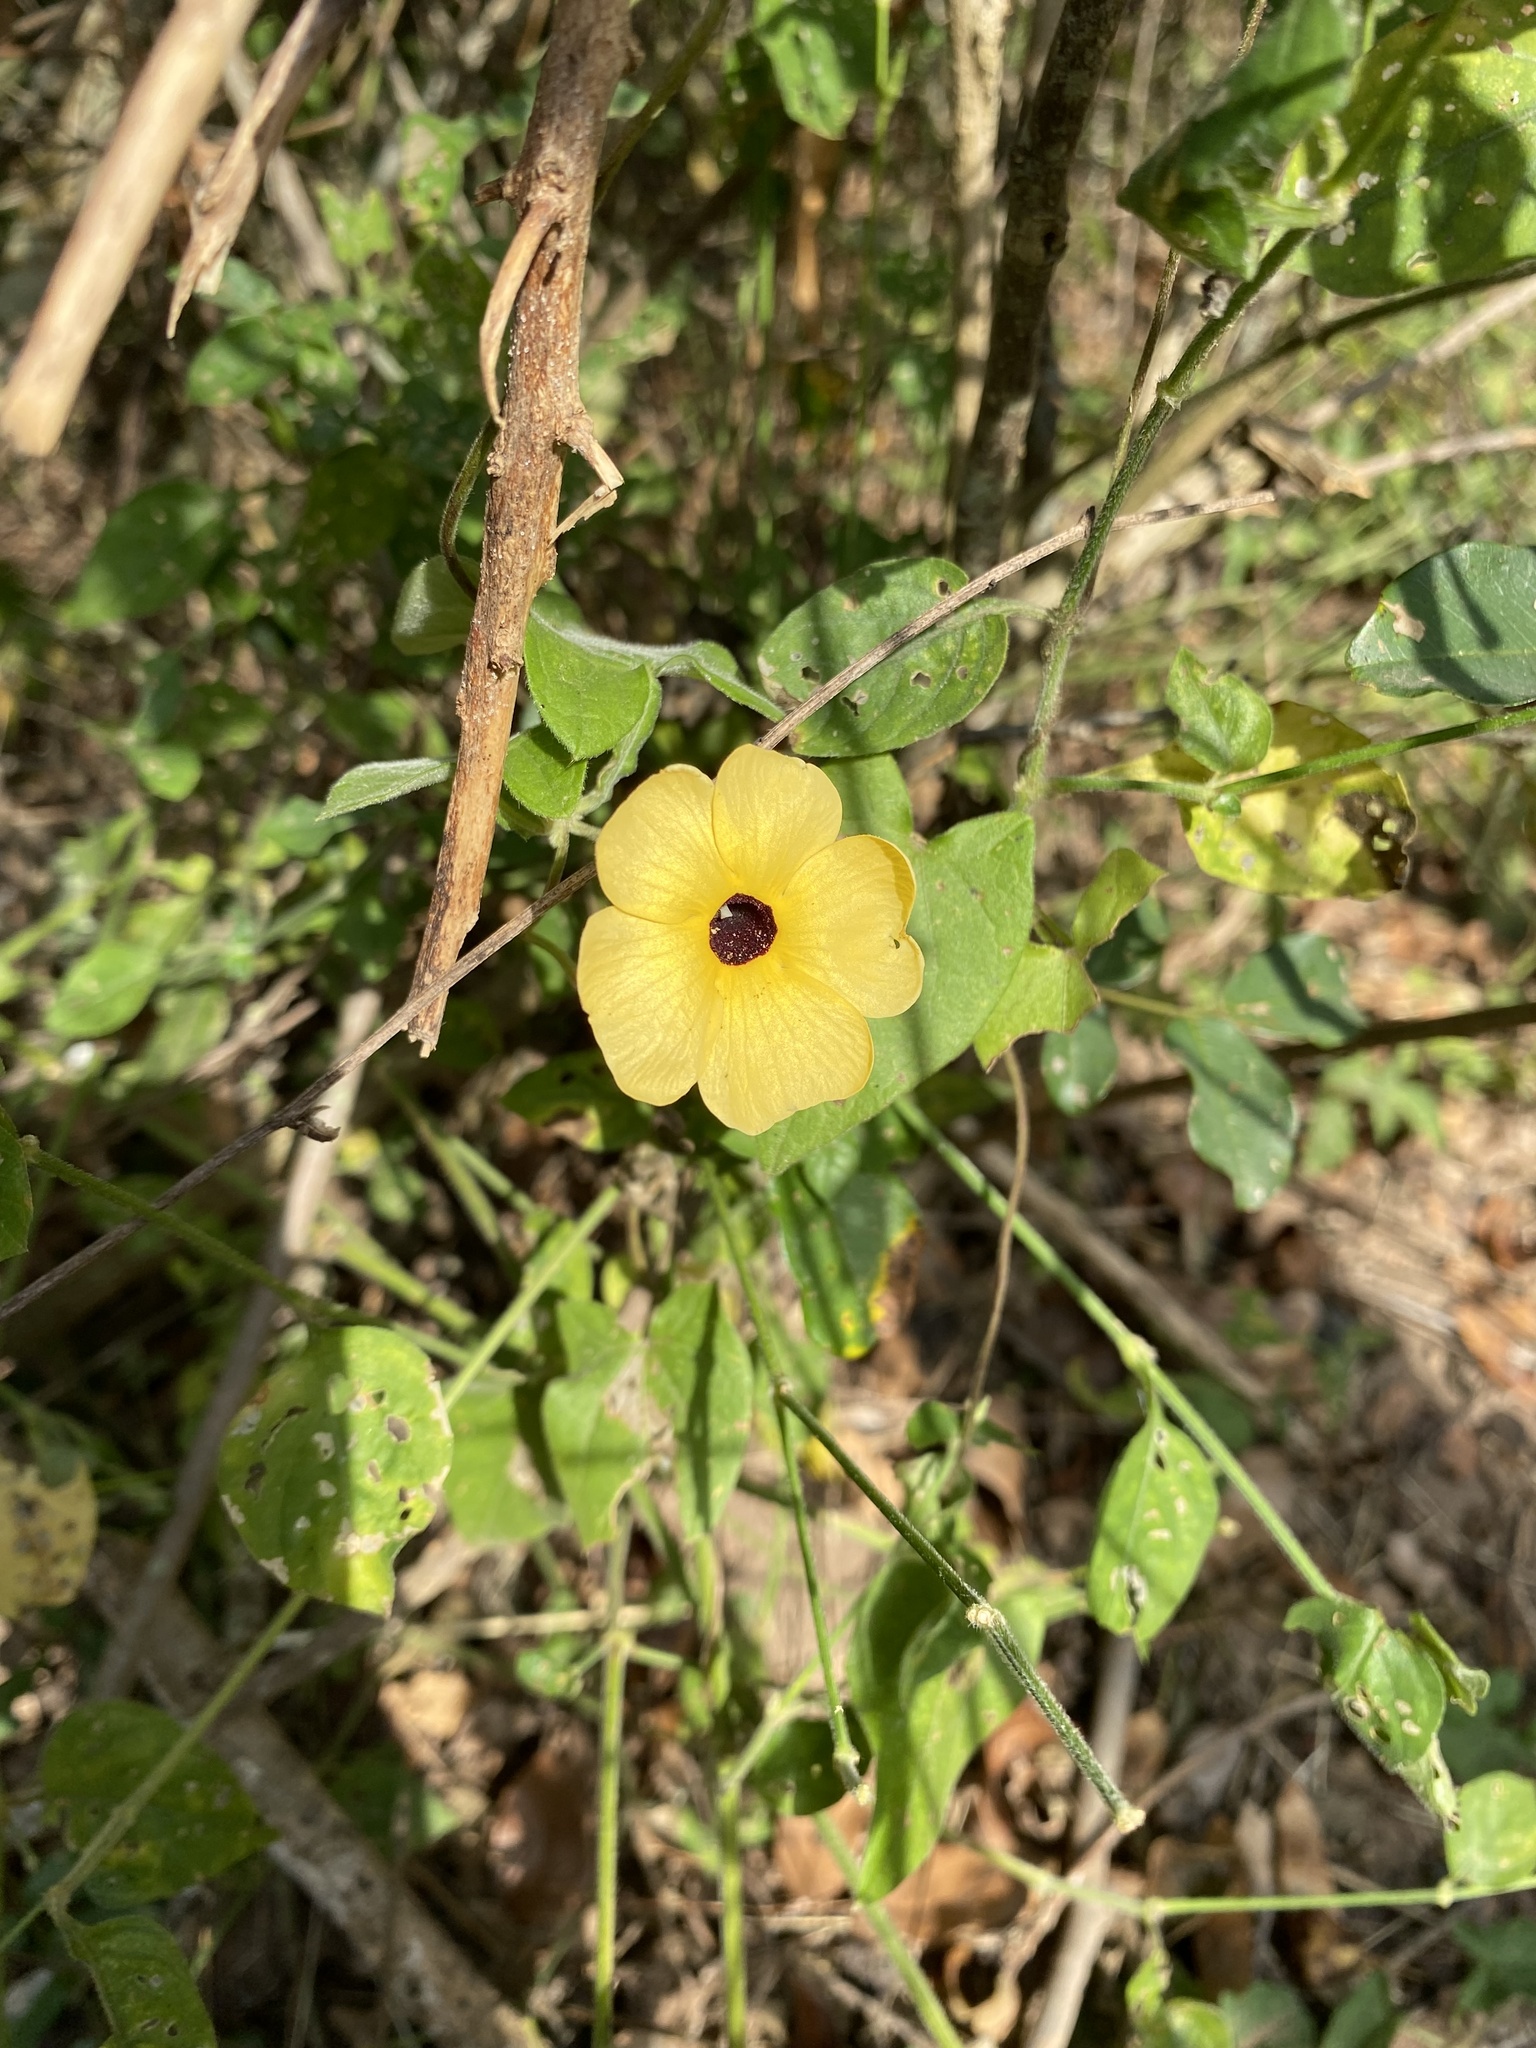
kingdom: Plantae
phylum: Tracheophyta
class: Magnoliopsida
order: Lamiales
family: Acanthaceae
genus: Thunbergia
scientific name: Thunbergia alata
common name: Blackeyed susan vine
